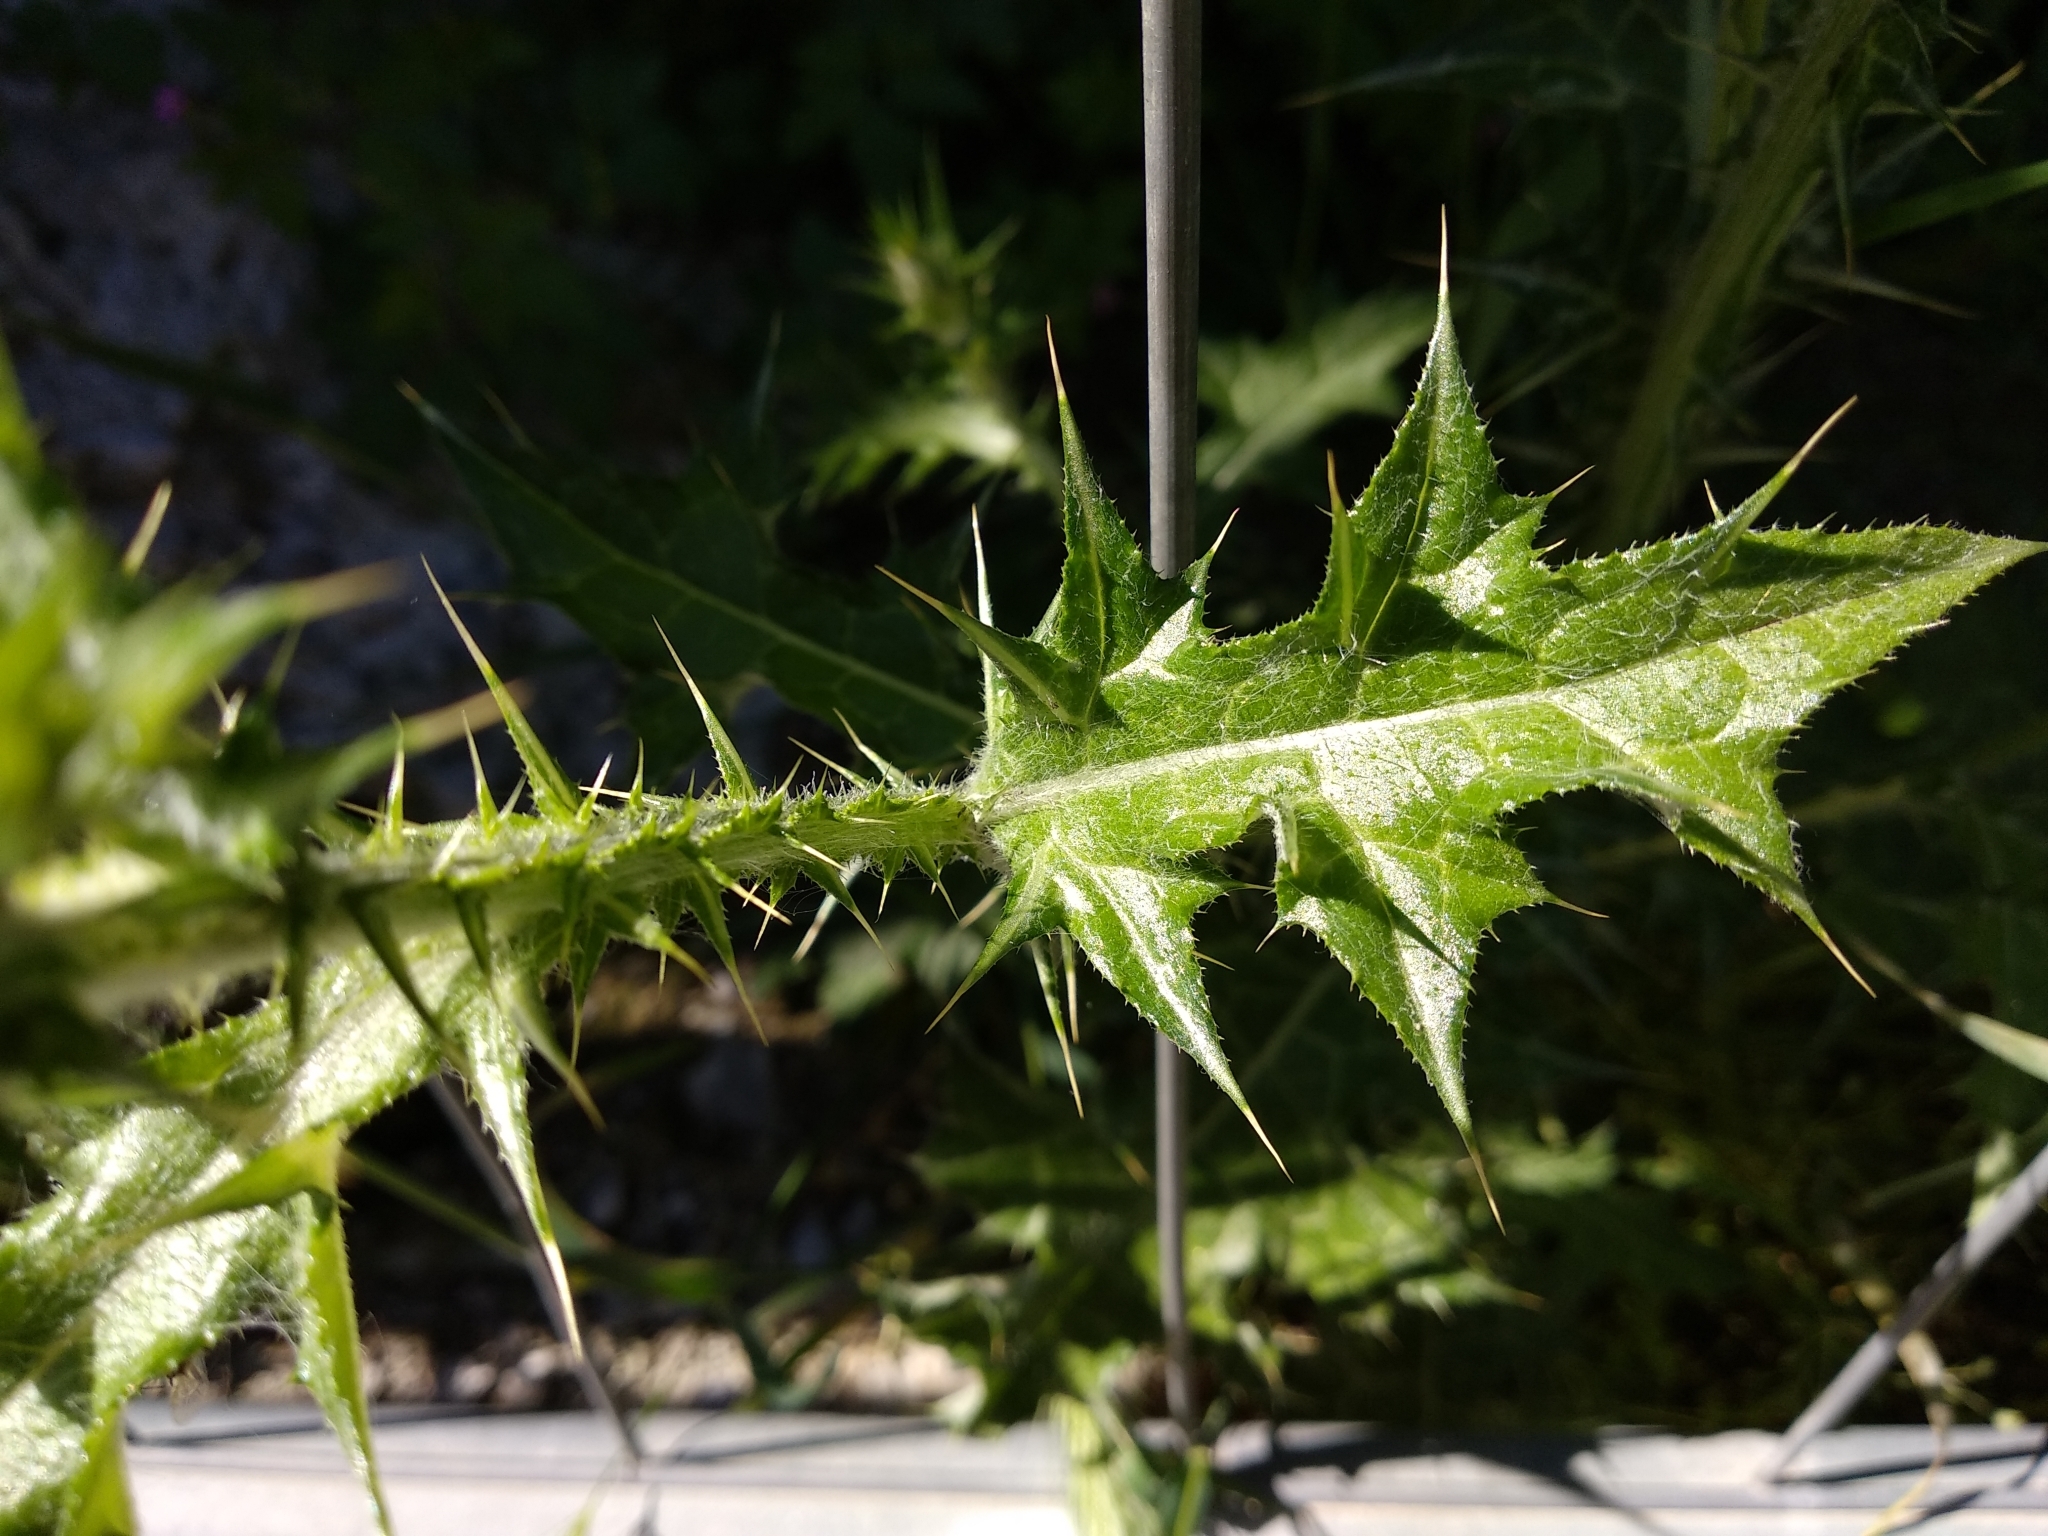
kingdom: Plantae
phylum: Tracheophyta
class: Magnoliopsida
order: Asterales
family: Asteraceae
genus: Carduus
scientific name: Carduus pycnocephalus
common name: Plymouth thistle
